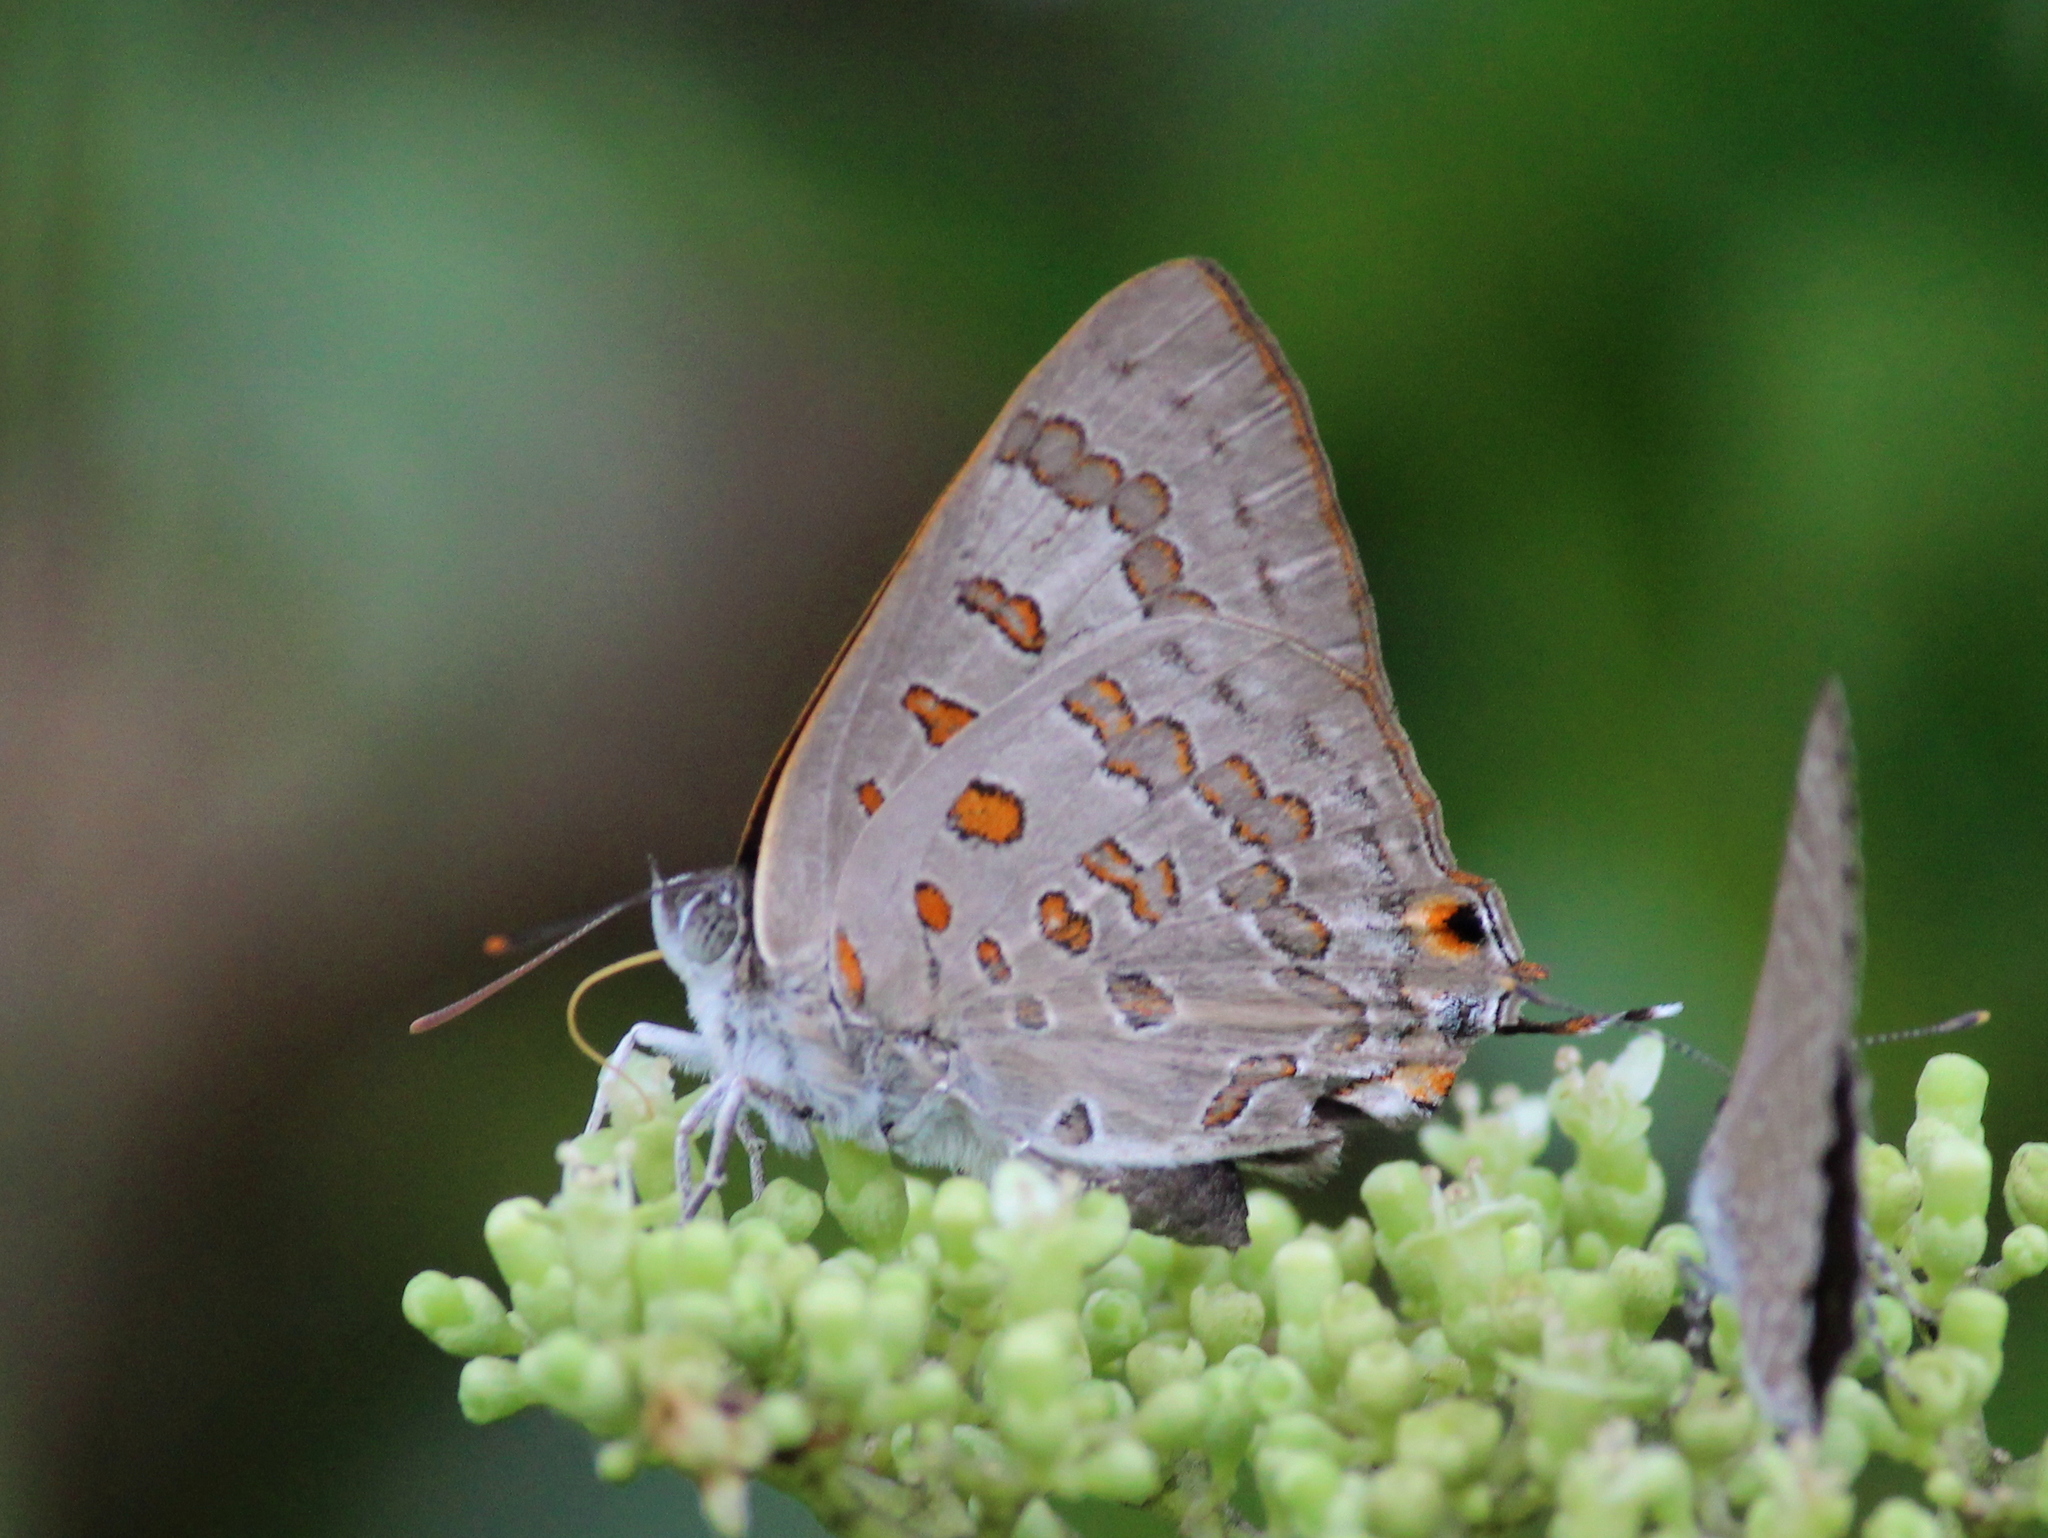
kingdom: Animalia
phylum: Arthropoda
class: Insecta
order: Lepidoptera
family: Lycaenidae
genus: Zesius
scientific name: Zesius chrysomallus
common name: Redspot
